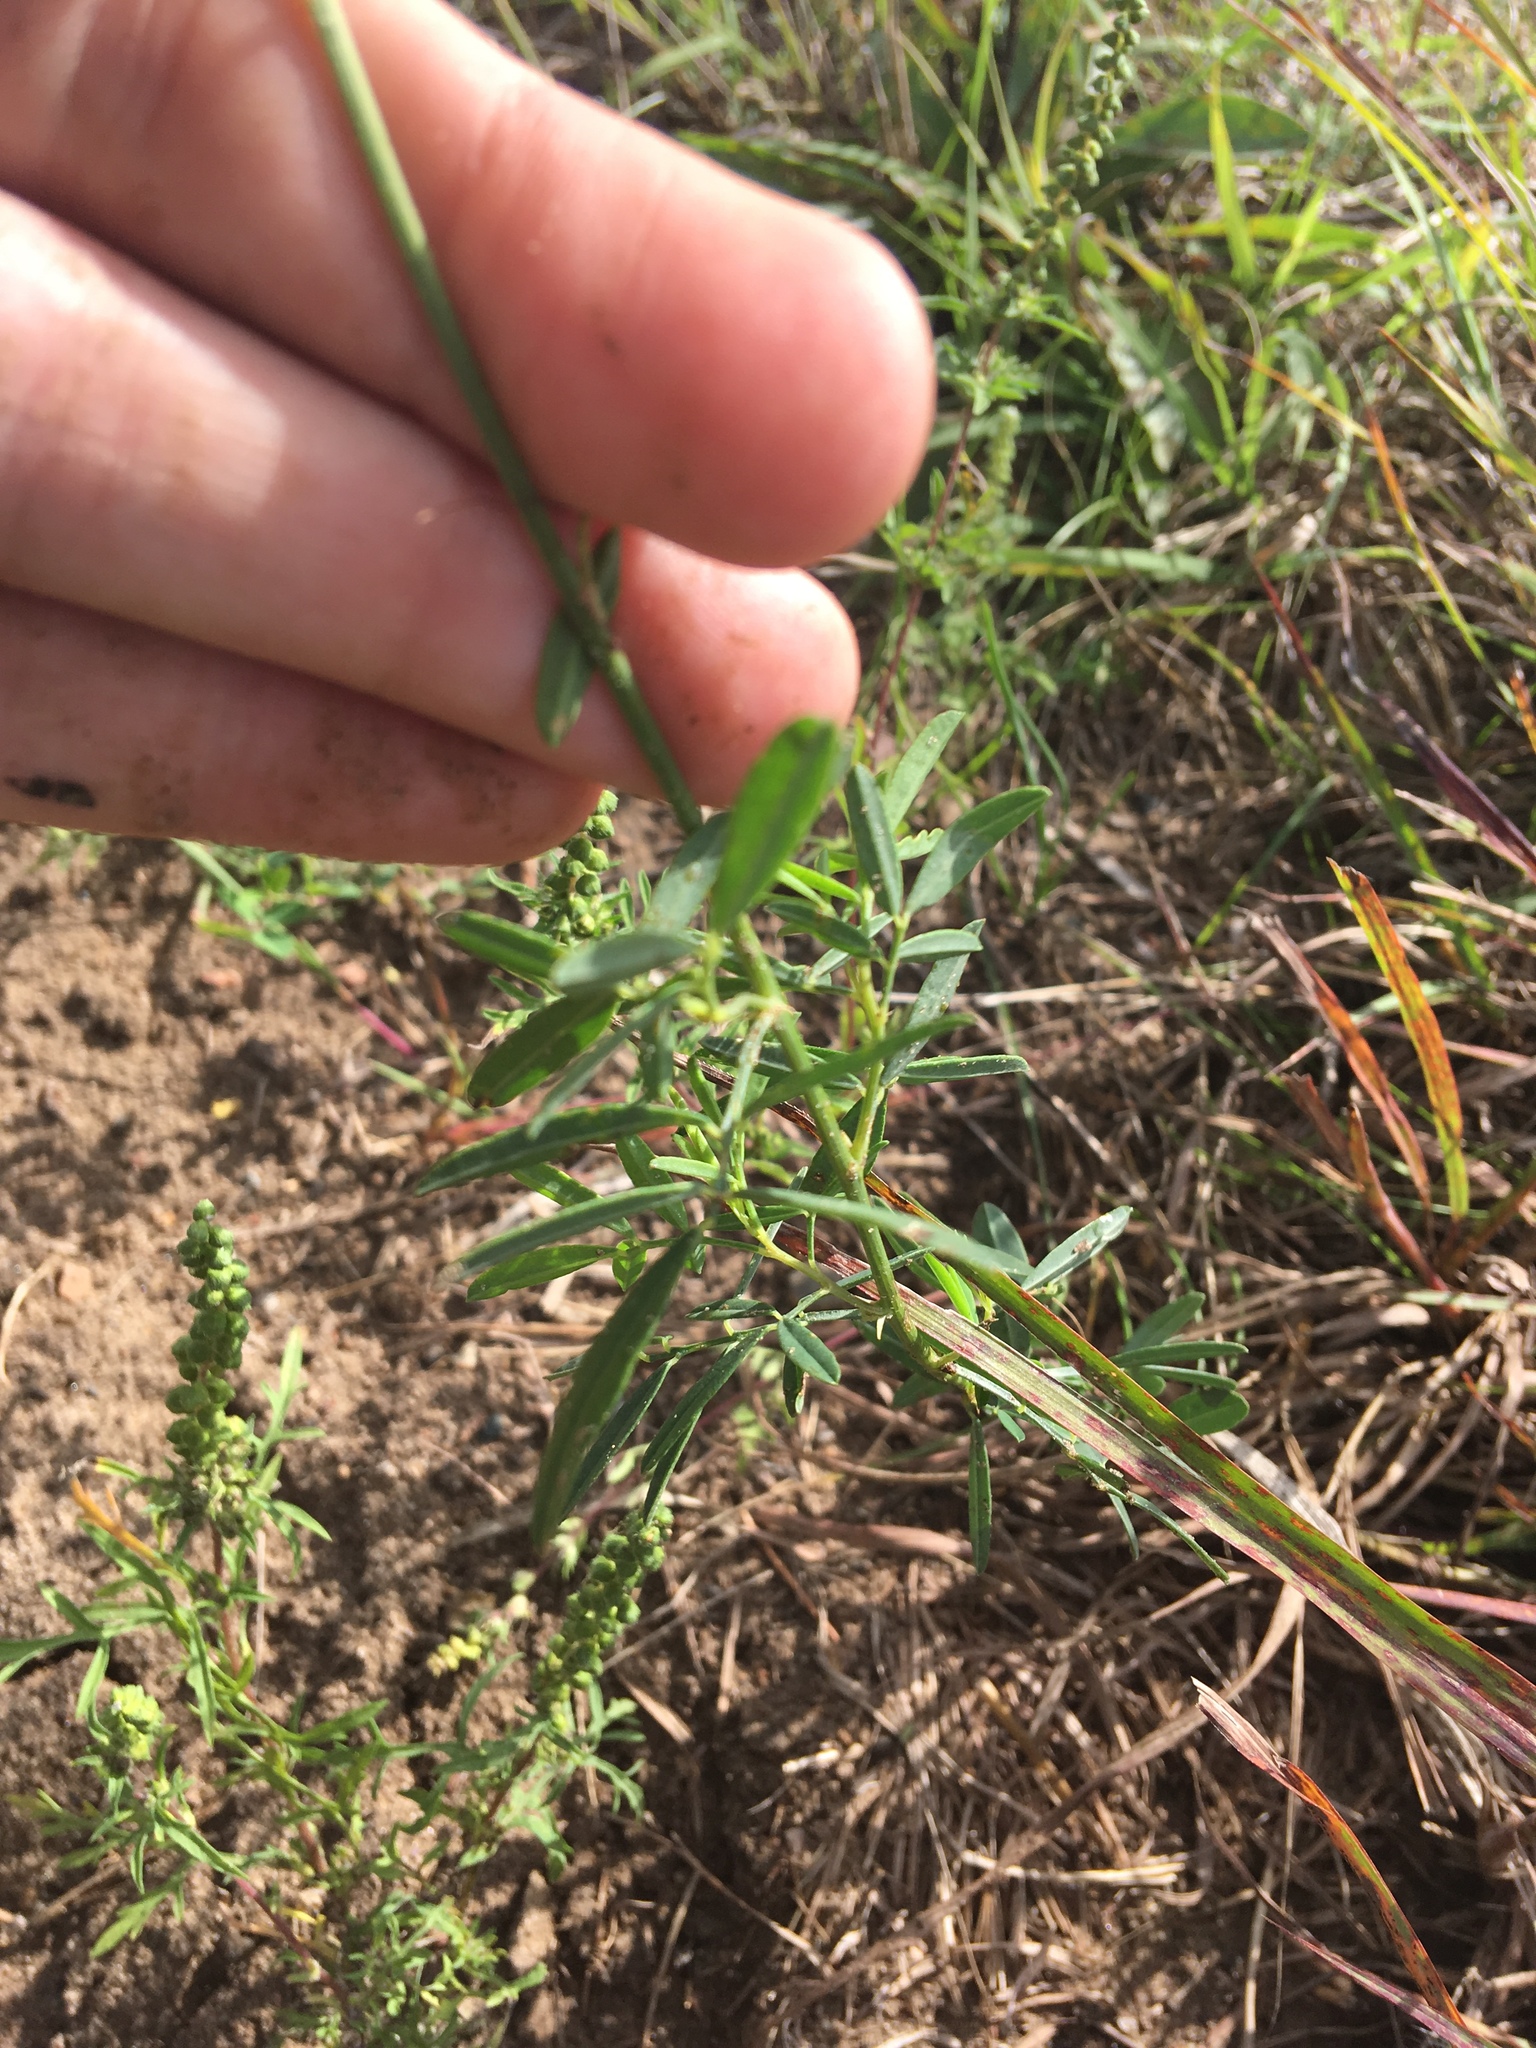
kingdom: Plantae
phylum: Tracheophyta
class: Magnoliopsida
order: Fabales
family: Fabaceae
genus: Dalea
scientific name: Dalea candida
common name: White prairie-clover
